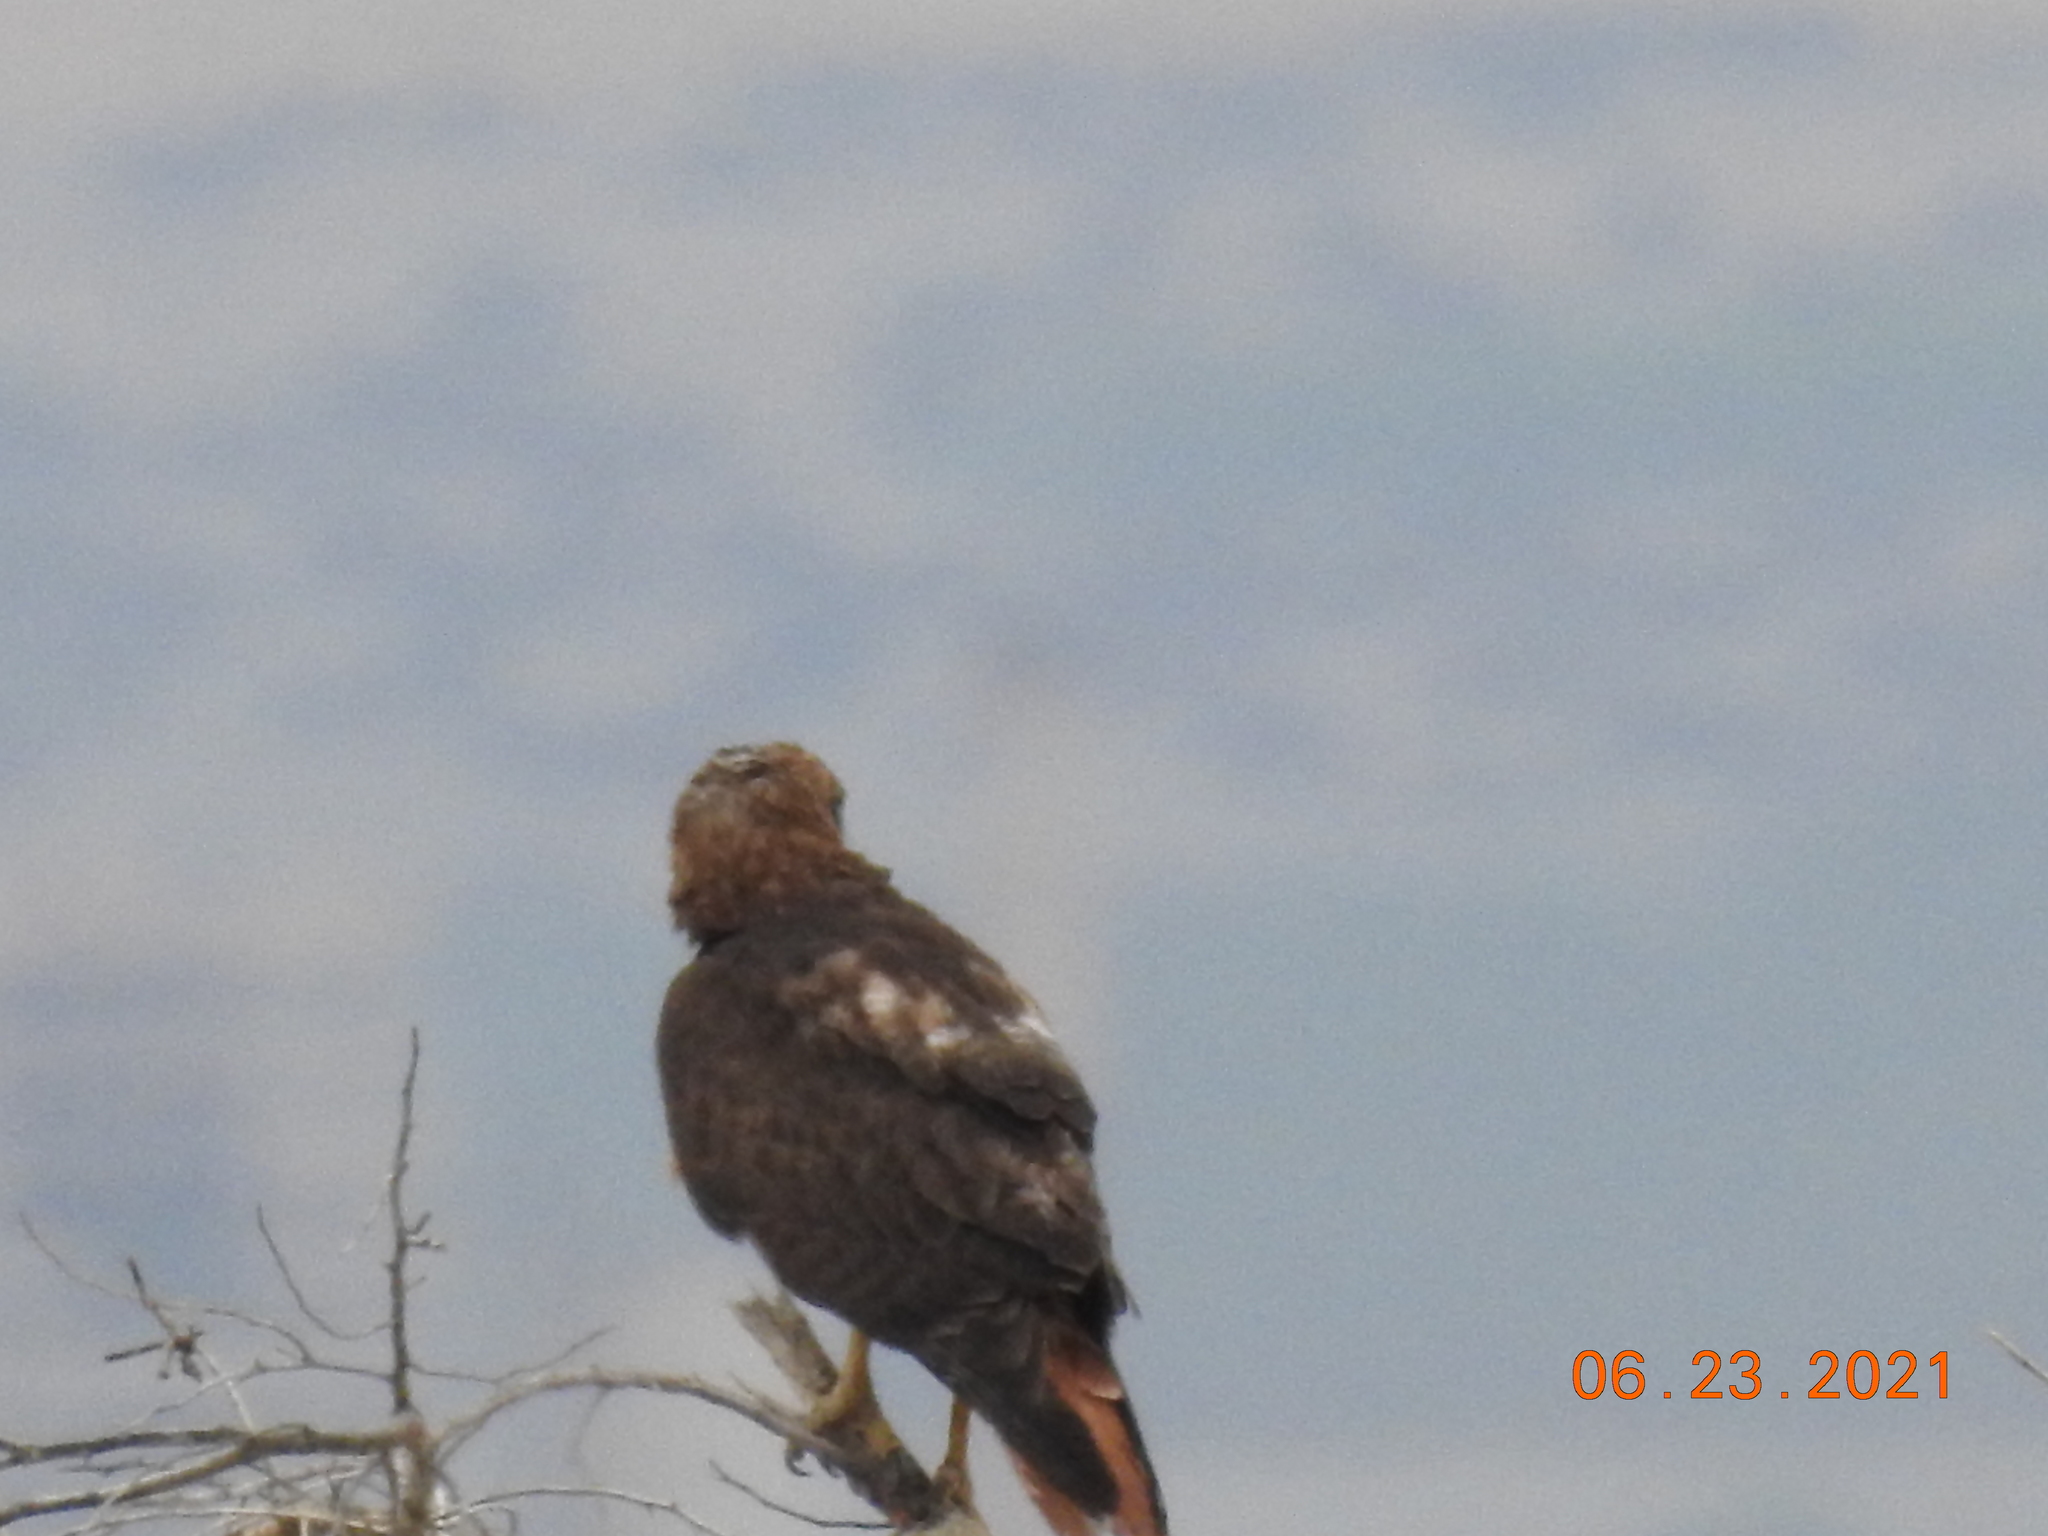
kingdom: Animalia
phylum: Chordata
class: Aves
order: Accipitriformes
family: Accipitridae
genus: Buteo
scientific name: Buteo jamaicensis
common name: Red-tailed hawk
